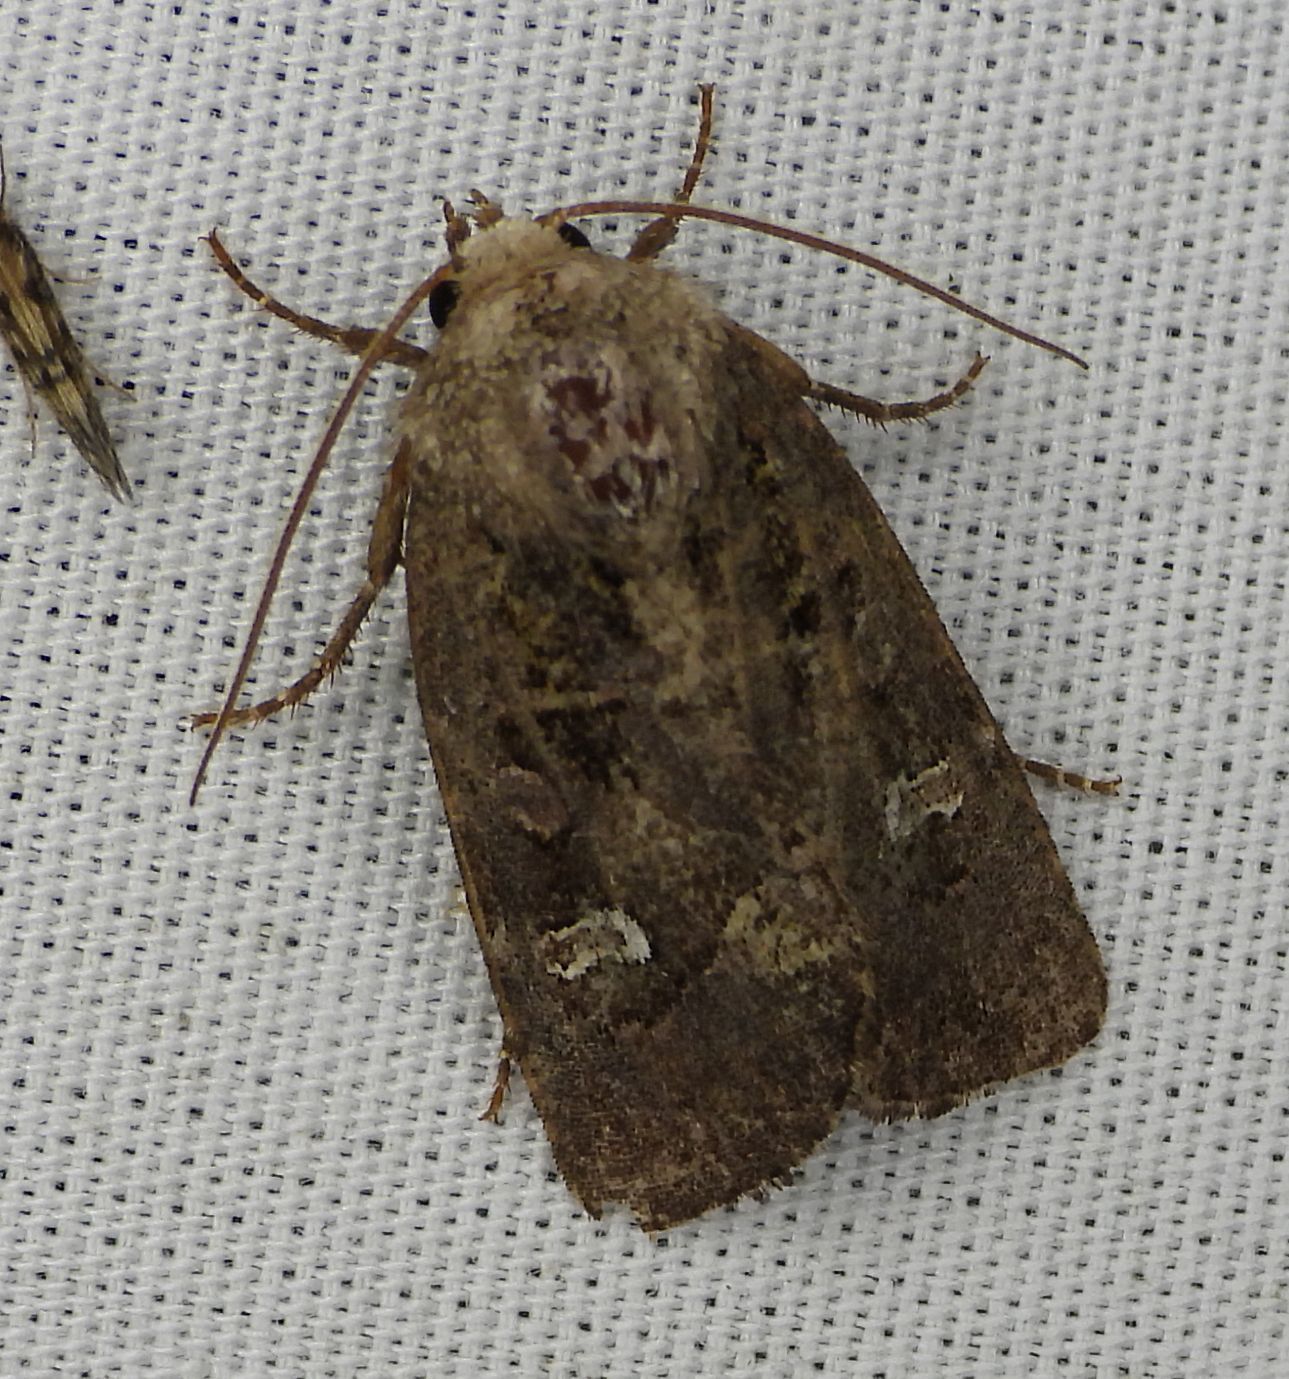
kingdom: Animalia
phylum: Arthropoda
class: Insecta
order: Lepidoptera
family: Noctuidae
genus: Lacinipolia
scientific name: Lacinipolia renigera
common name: Kidney-spotted minor
